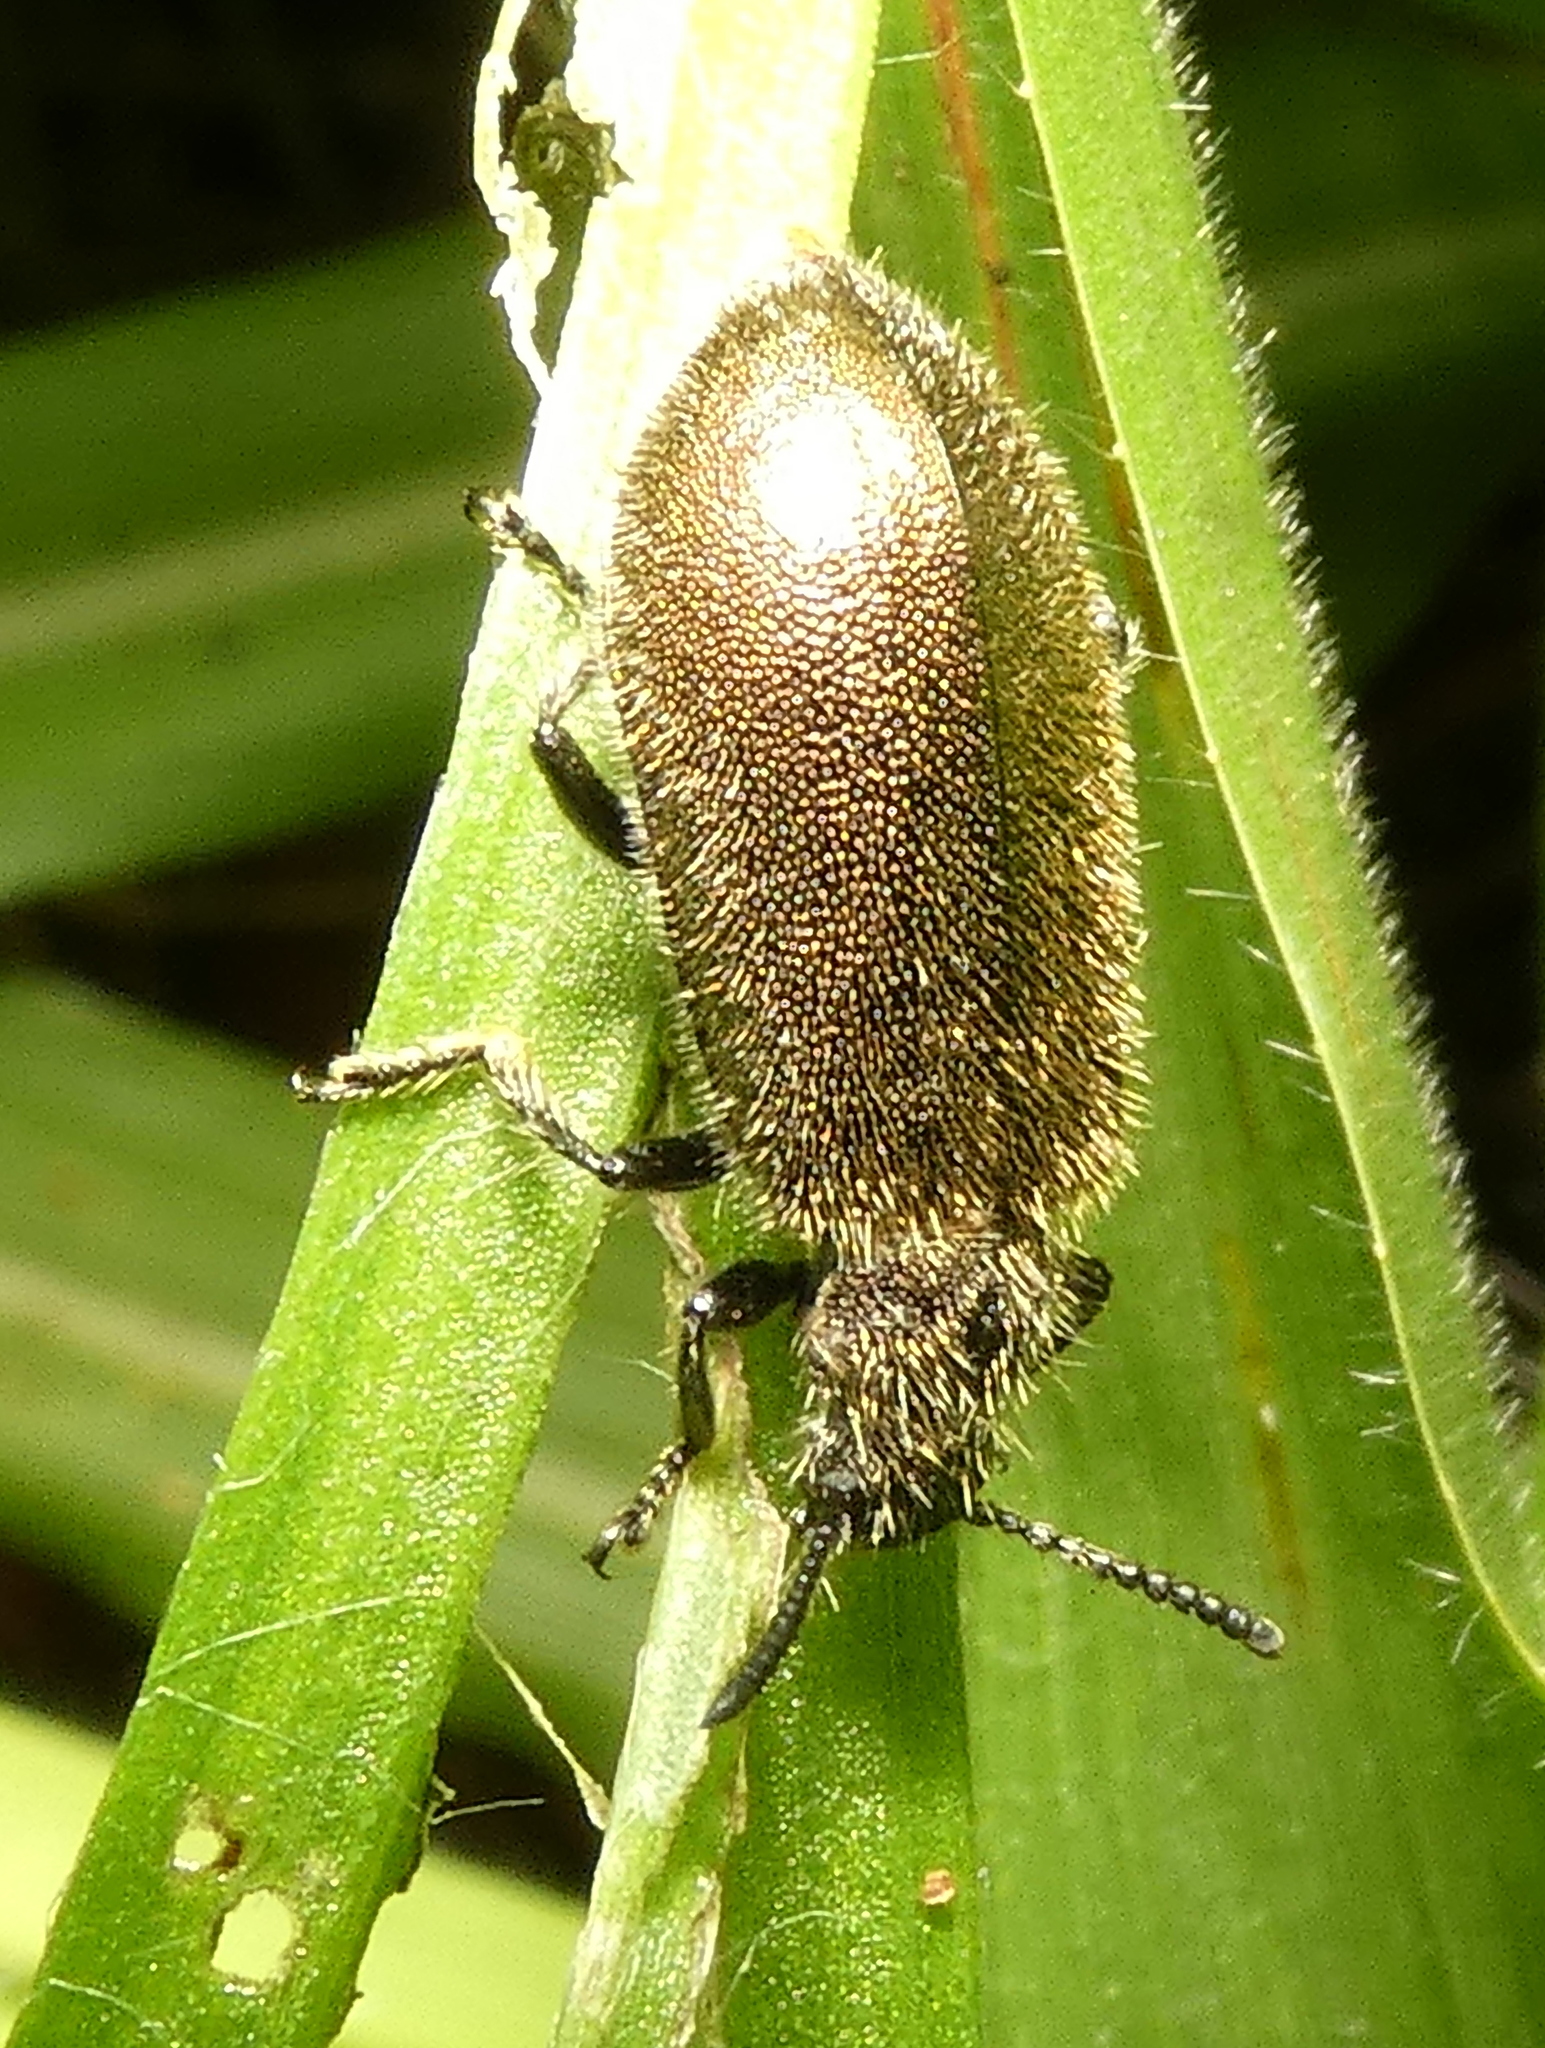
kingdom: Animalia
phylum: Arthropoda
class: Insecta
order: Coleoptera
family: Tenebrionidae
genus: Lagria
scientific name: Lagria villosa
